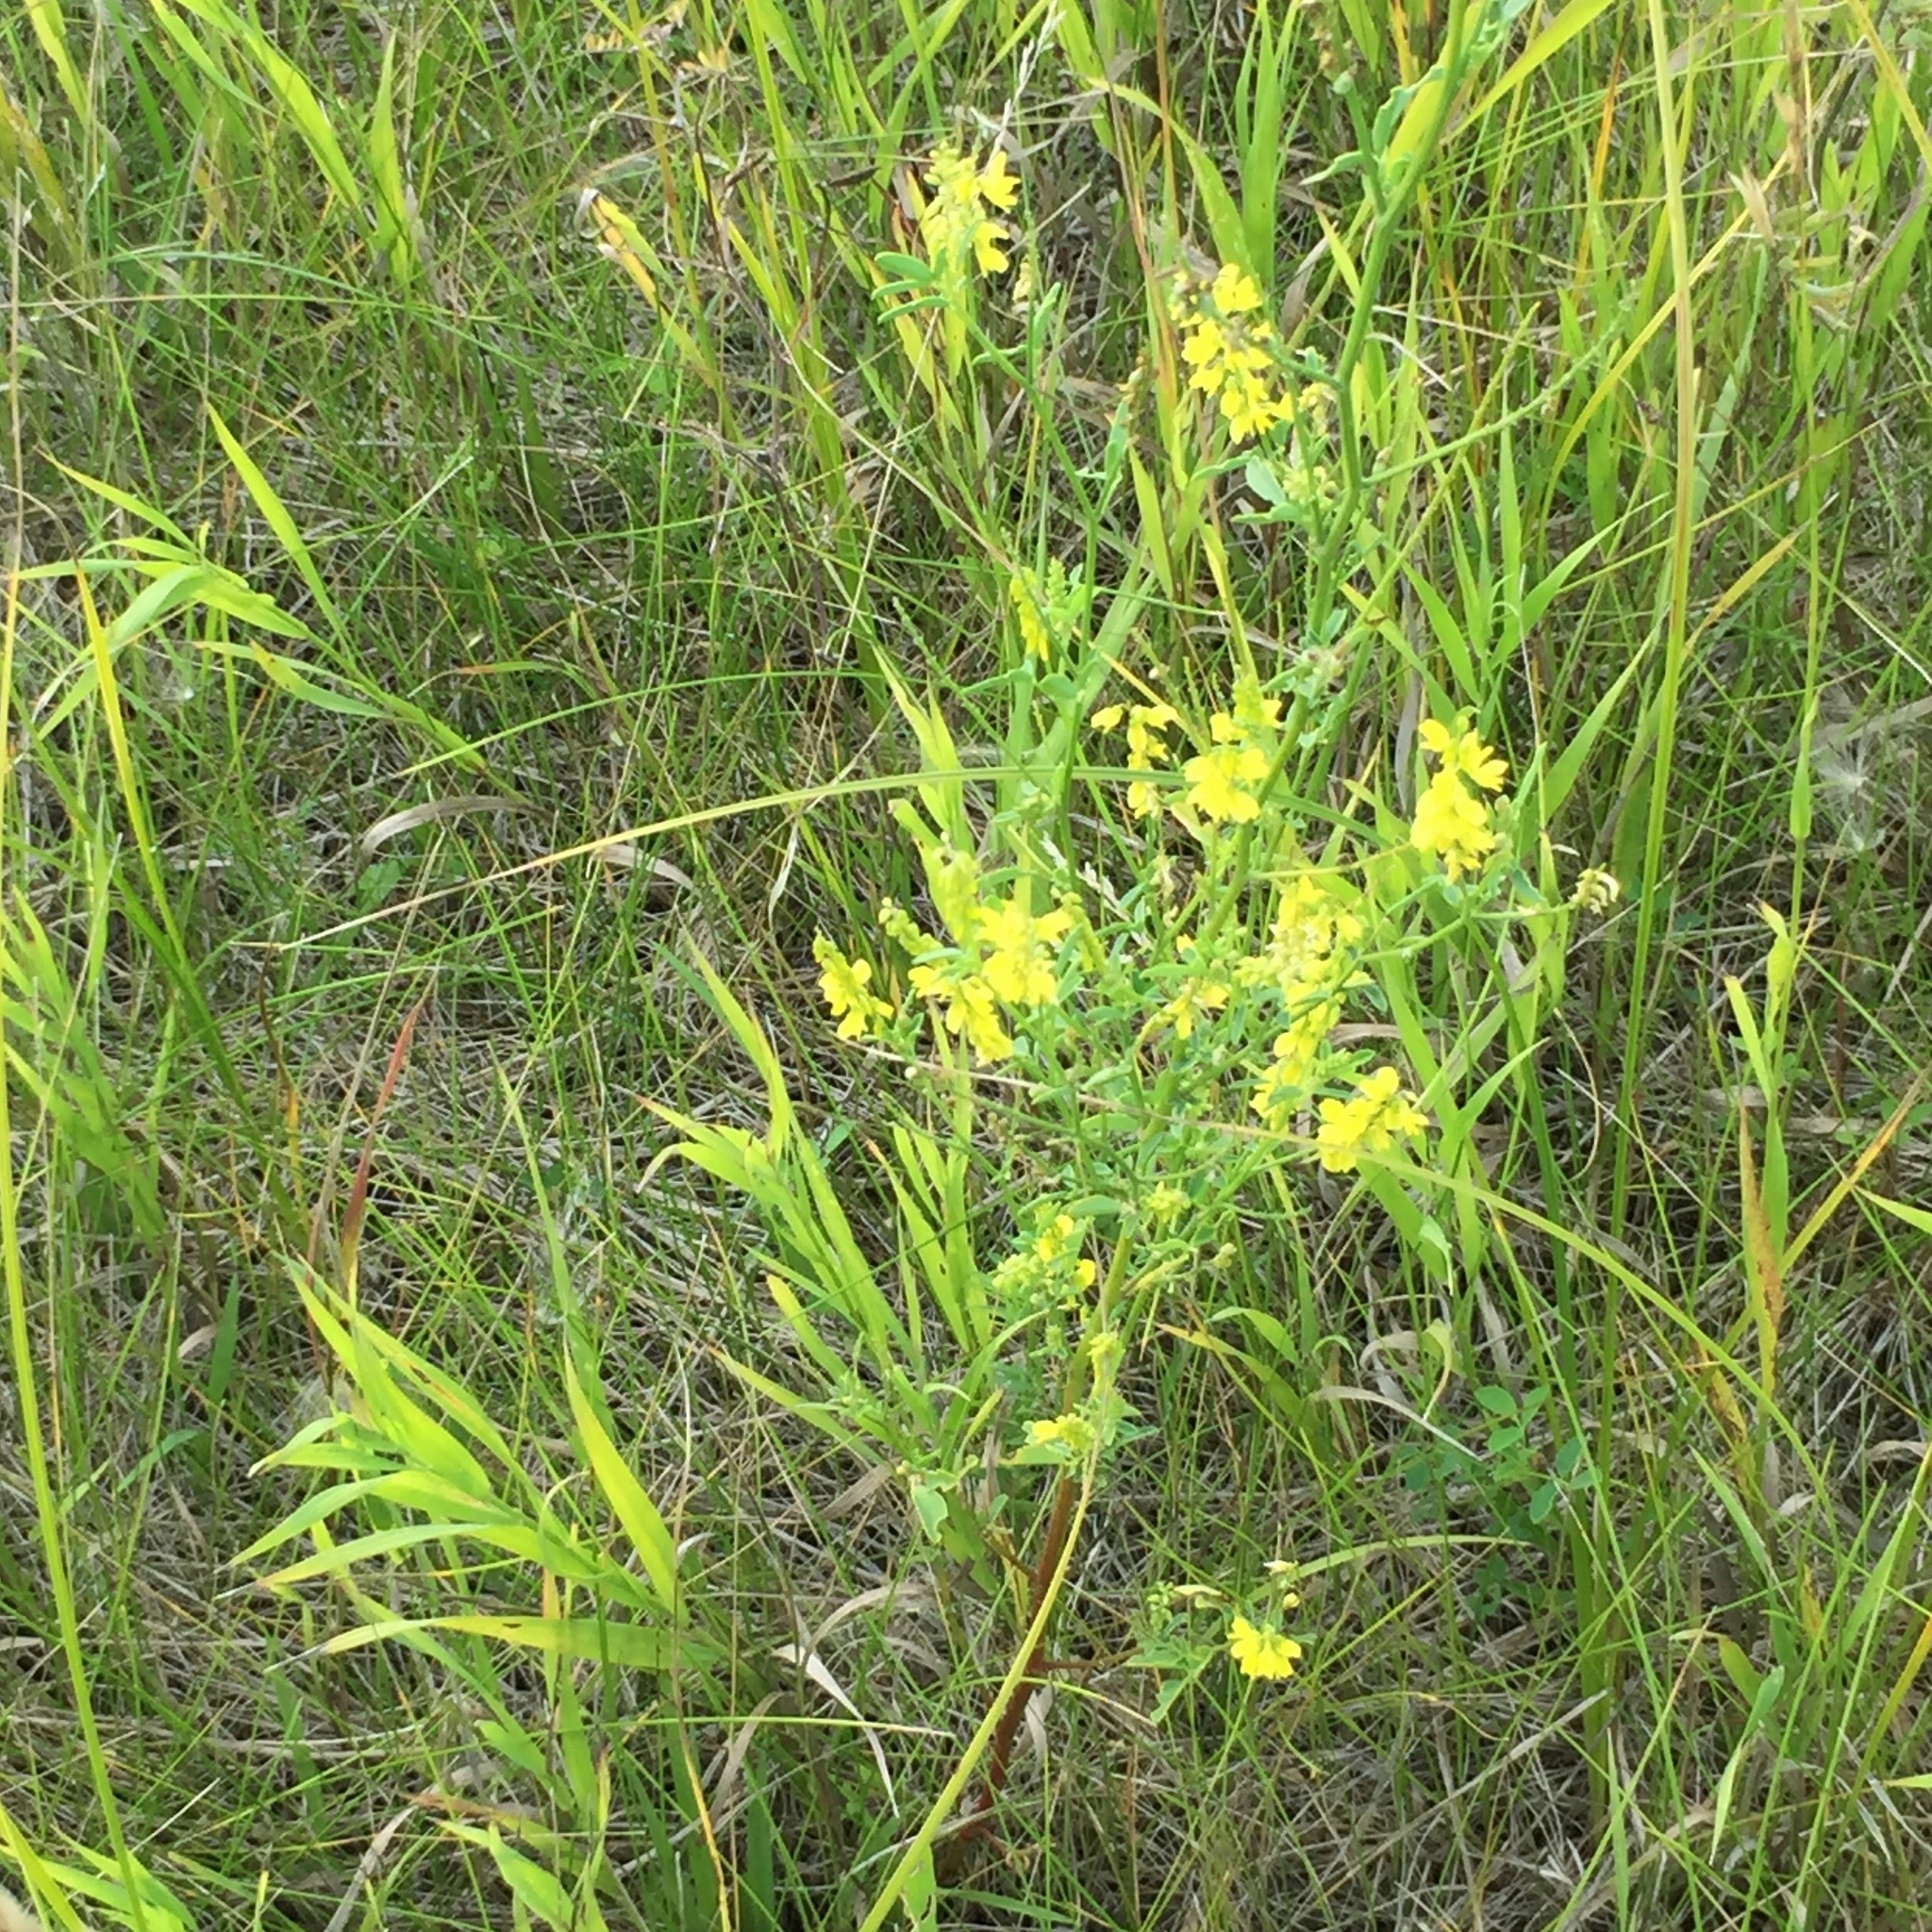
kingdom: Plantae
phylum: Tracheophyta
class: Magnoliopsida
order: Fabales
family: Fabaceae
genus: Melilotus
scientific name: Melilotus officinalis
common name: Sweetclover
